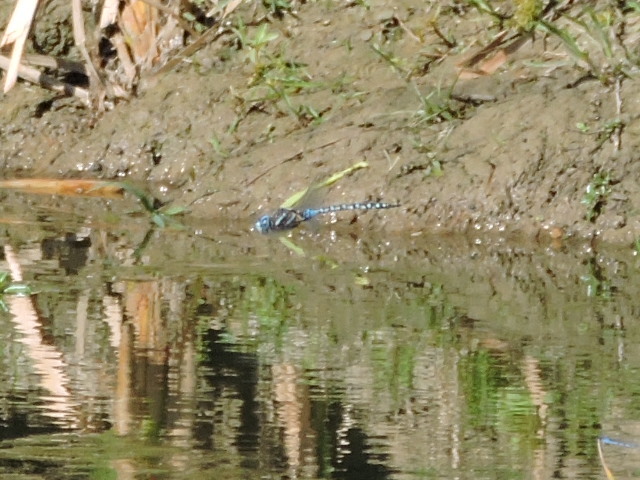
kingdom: Animalia
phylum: Arthropoda
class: Insecta
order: Odonata
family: Aeshnidae
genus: Rhionaeschna
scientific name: Rhionaeschna multicolor
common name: Blue-eyed darner
